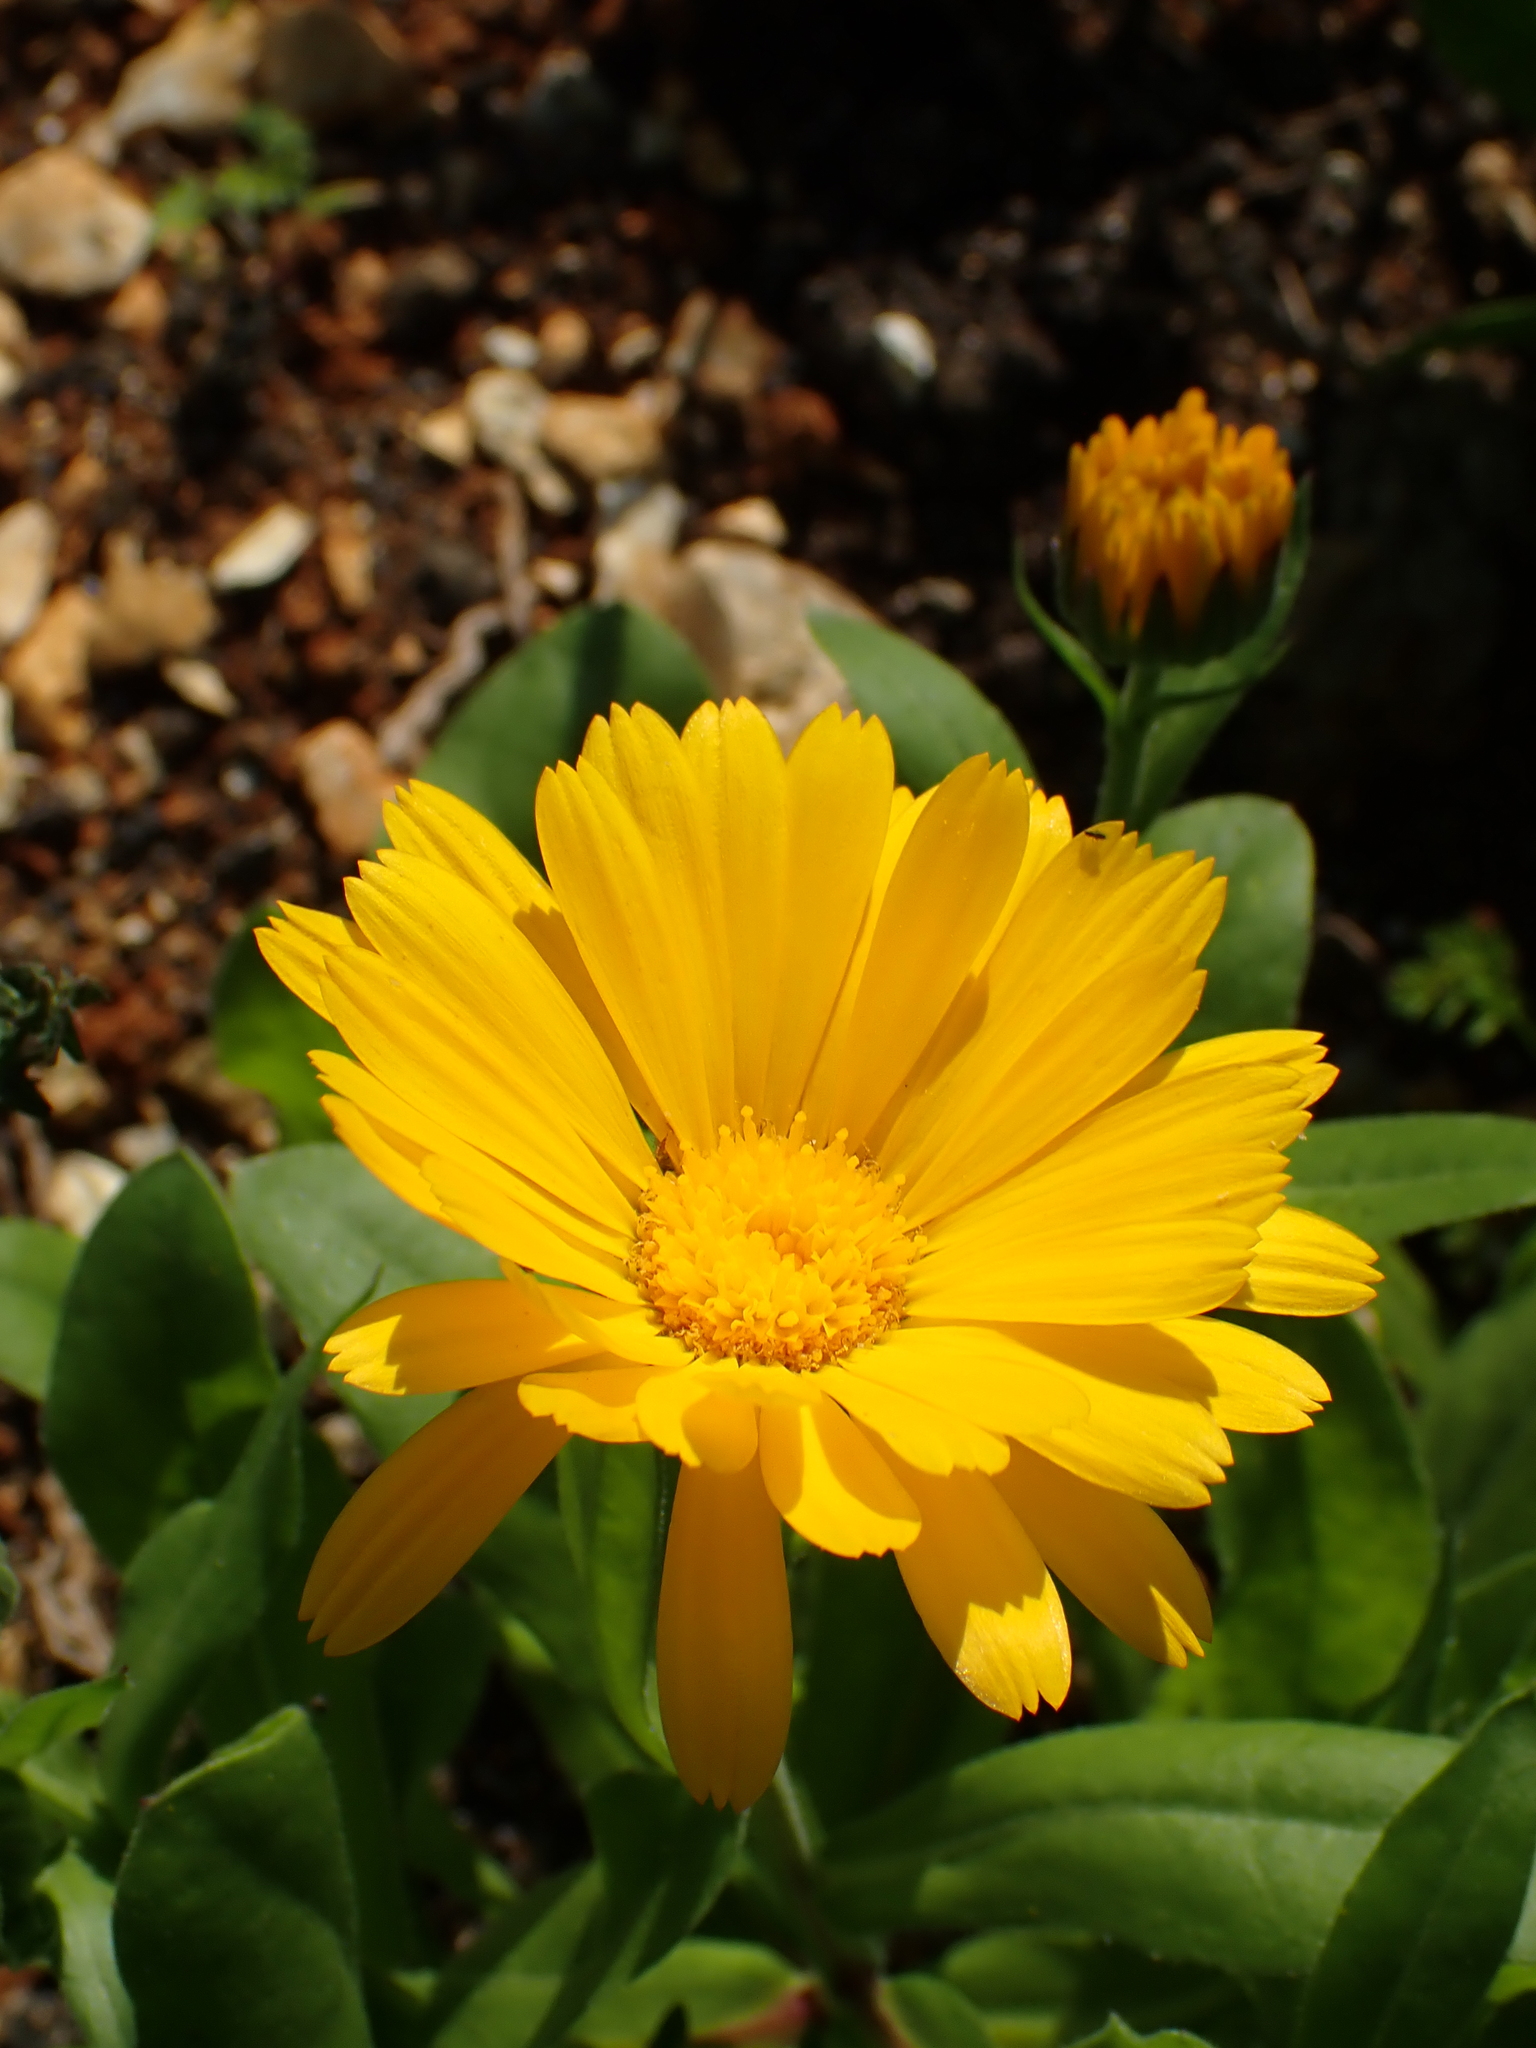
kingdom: Plantae
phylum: Tracheophyta
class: Magnoliopsida
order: Asterales
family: Asteraceae
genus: Calendula
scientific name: Calendula officinalis
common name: Pot marigold
